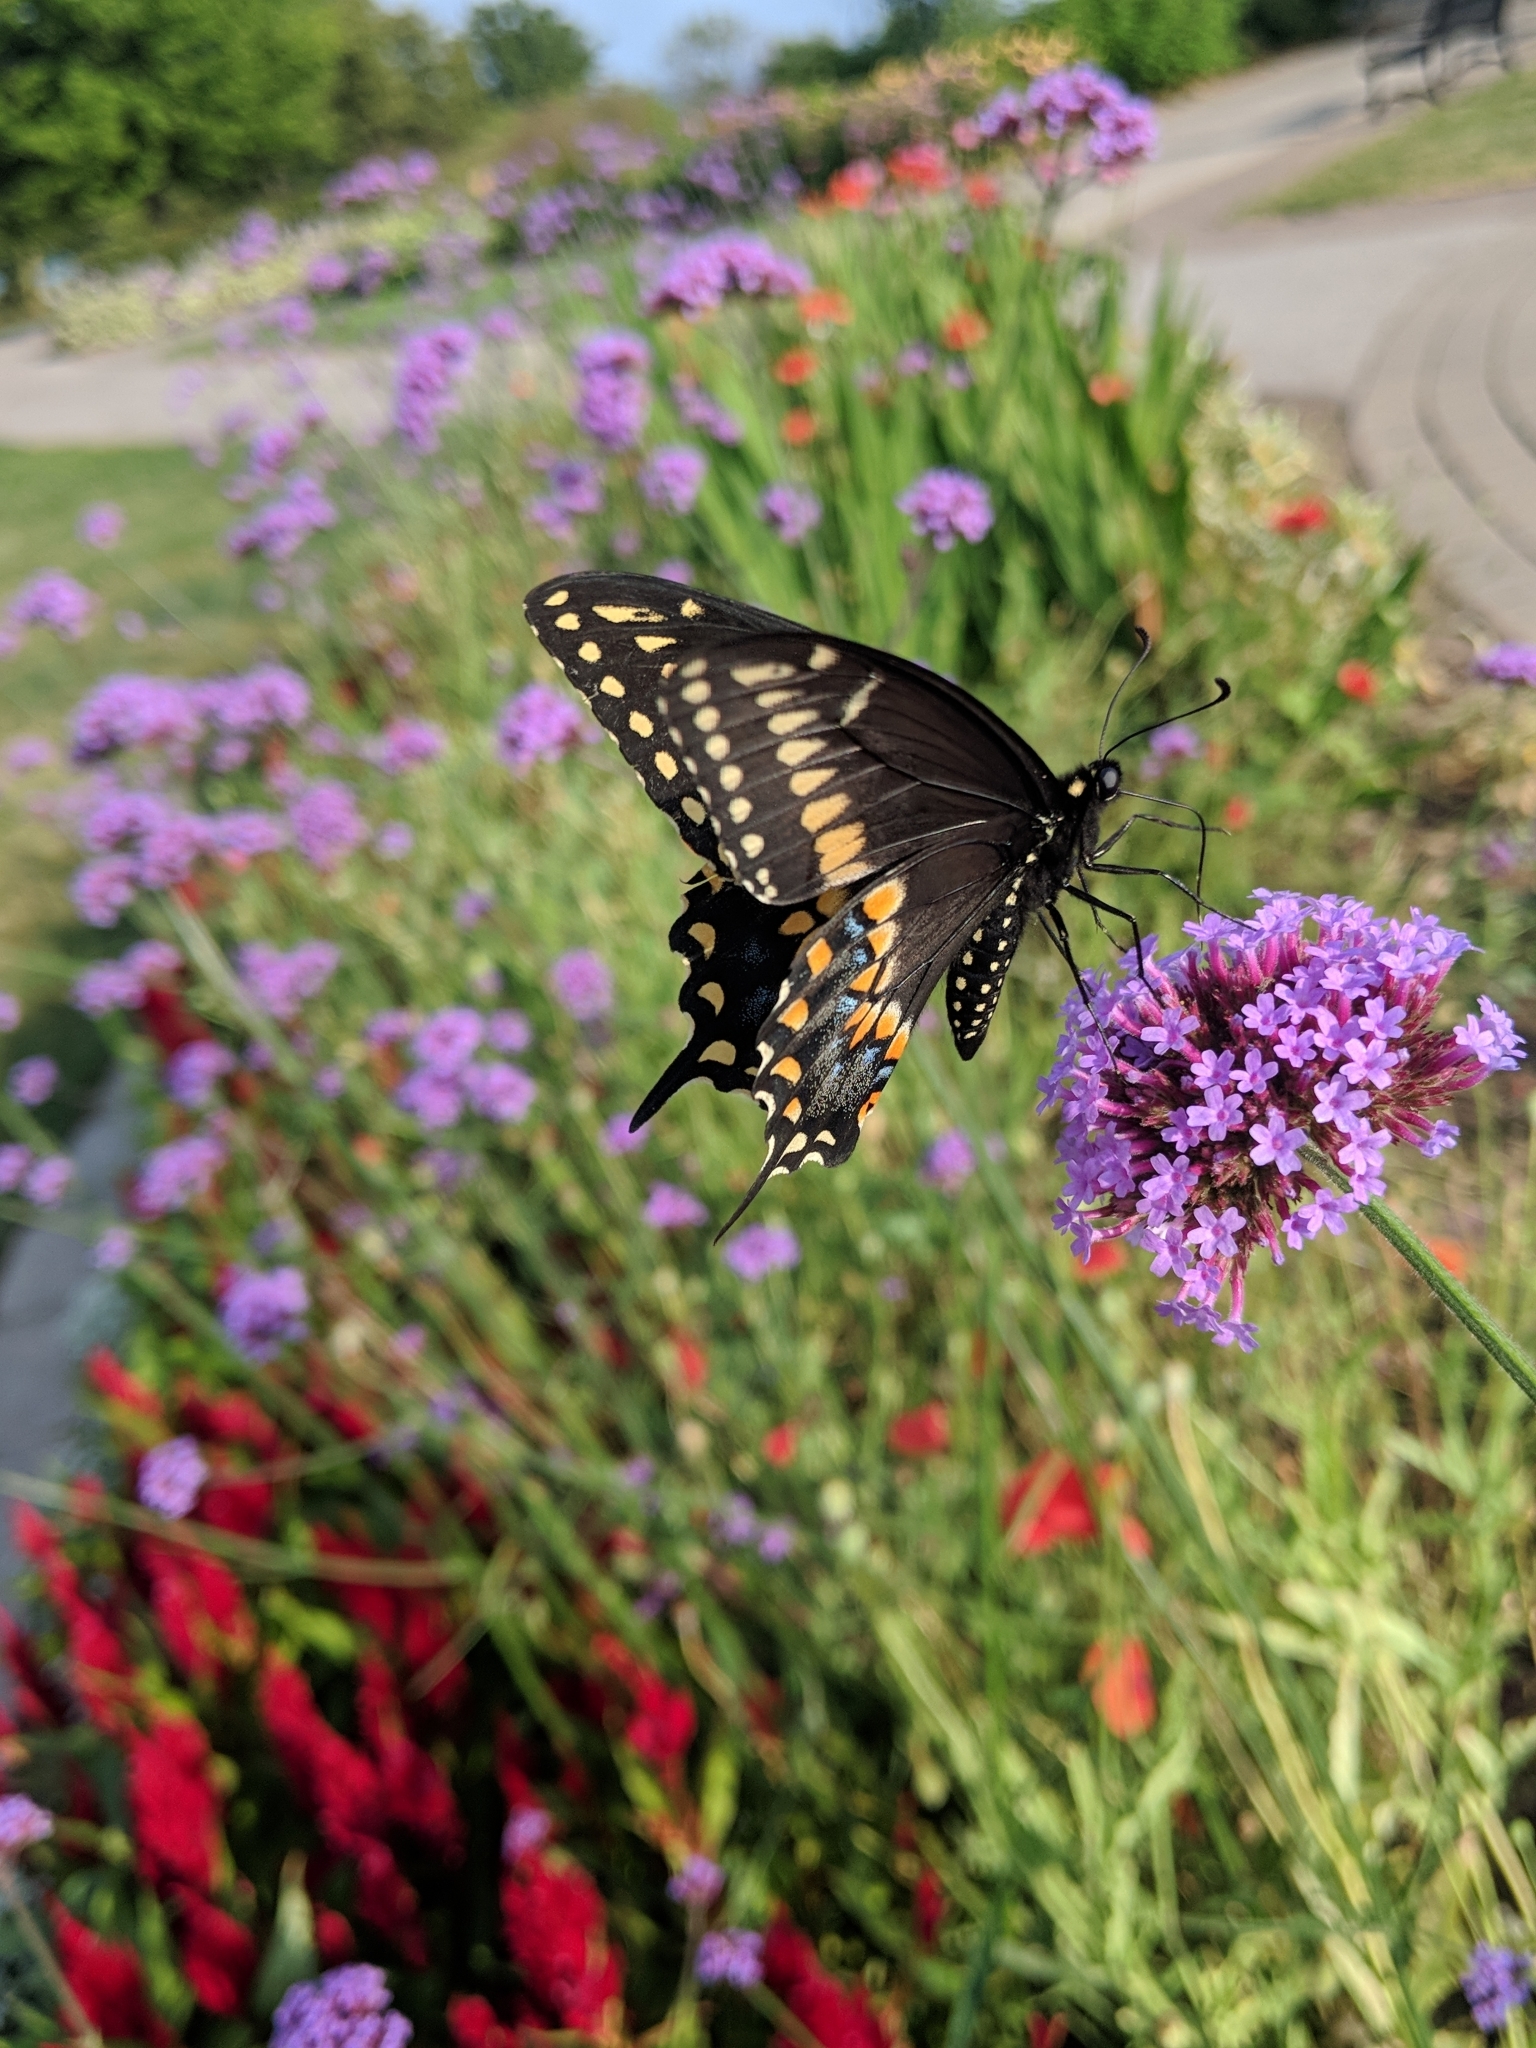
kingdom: Animalia
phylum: Arthropoda
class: Insecta
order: Lepidoptera
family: Papilionidae
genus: Papilio
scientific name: Papilio polyxenes
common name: Black swallowtail
